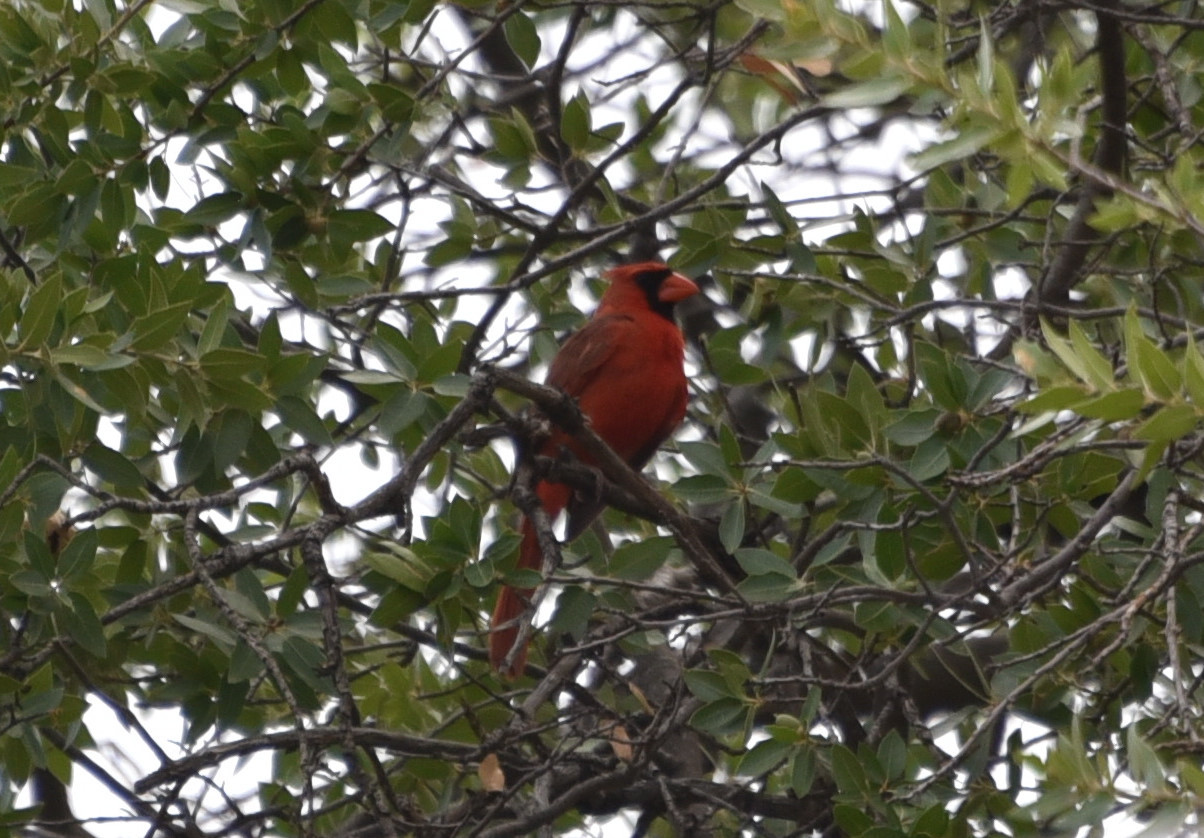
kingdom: Animalia
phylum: Chordata
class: Aves
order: Passeriformes
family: Cardinalidae
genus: Cardinalis
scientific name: Cardinalis cardinalis
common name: Northern cardinal
